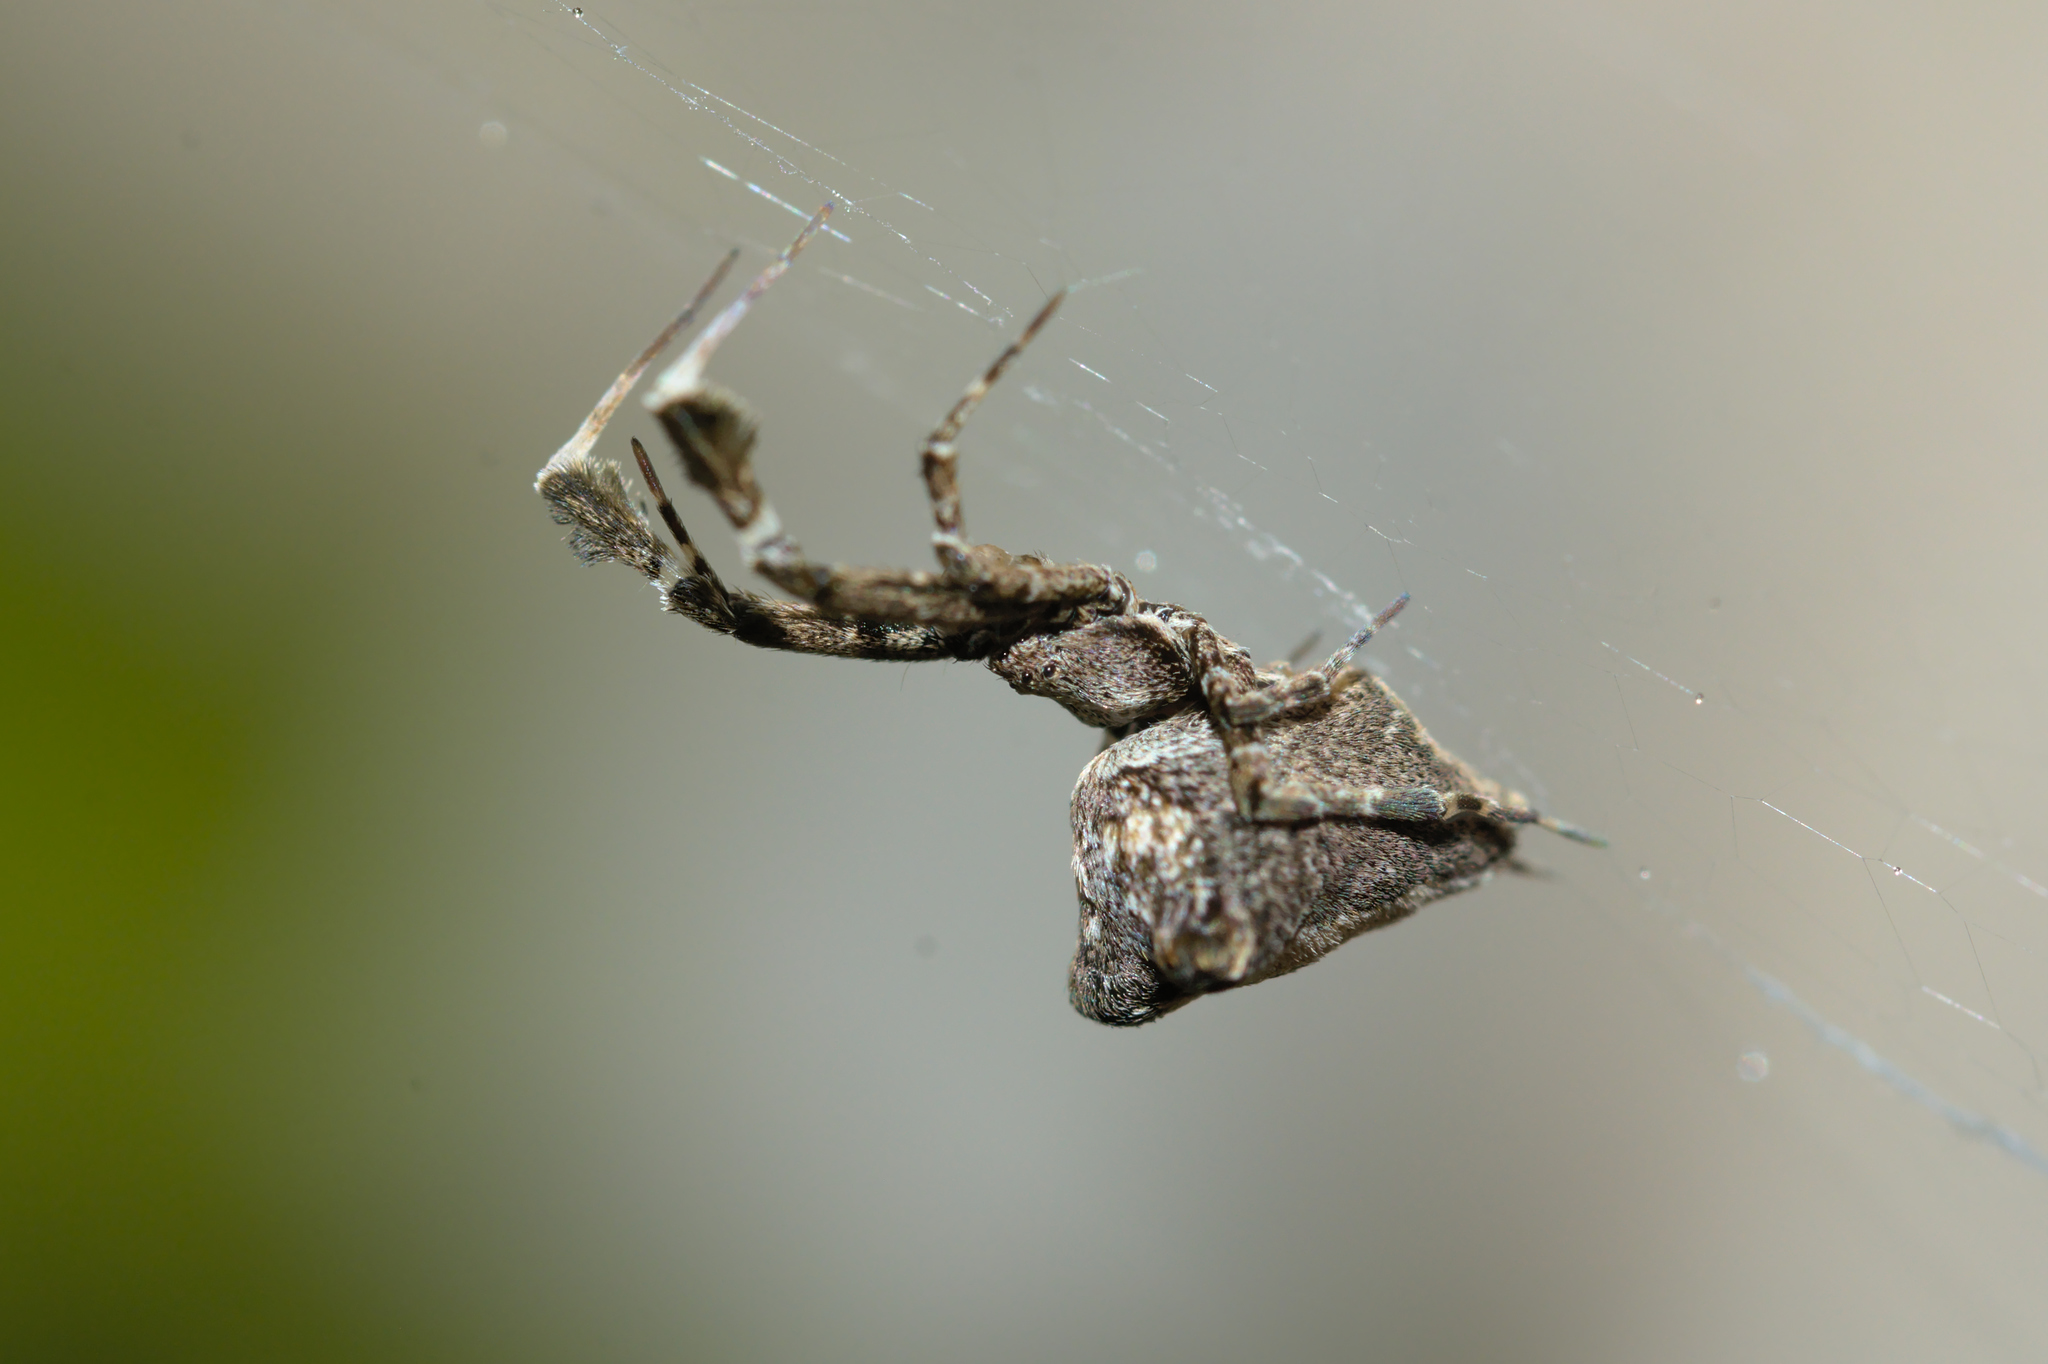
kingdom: Animalia
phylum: Arthropoda
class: Arachnida
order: Araneae
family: Uloboridae
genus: Uloborus
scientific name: Uloborus plumipes
